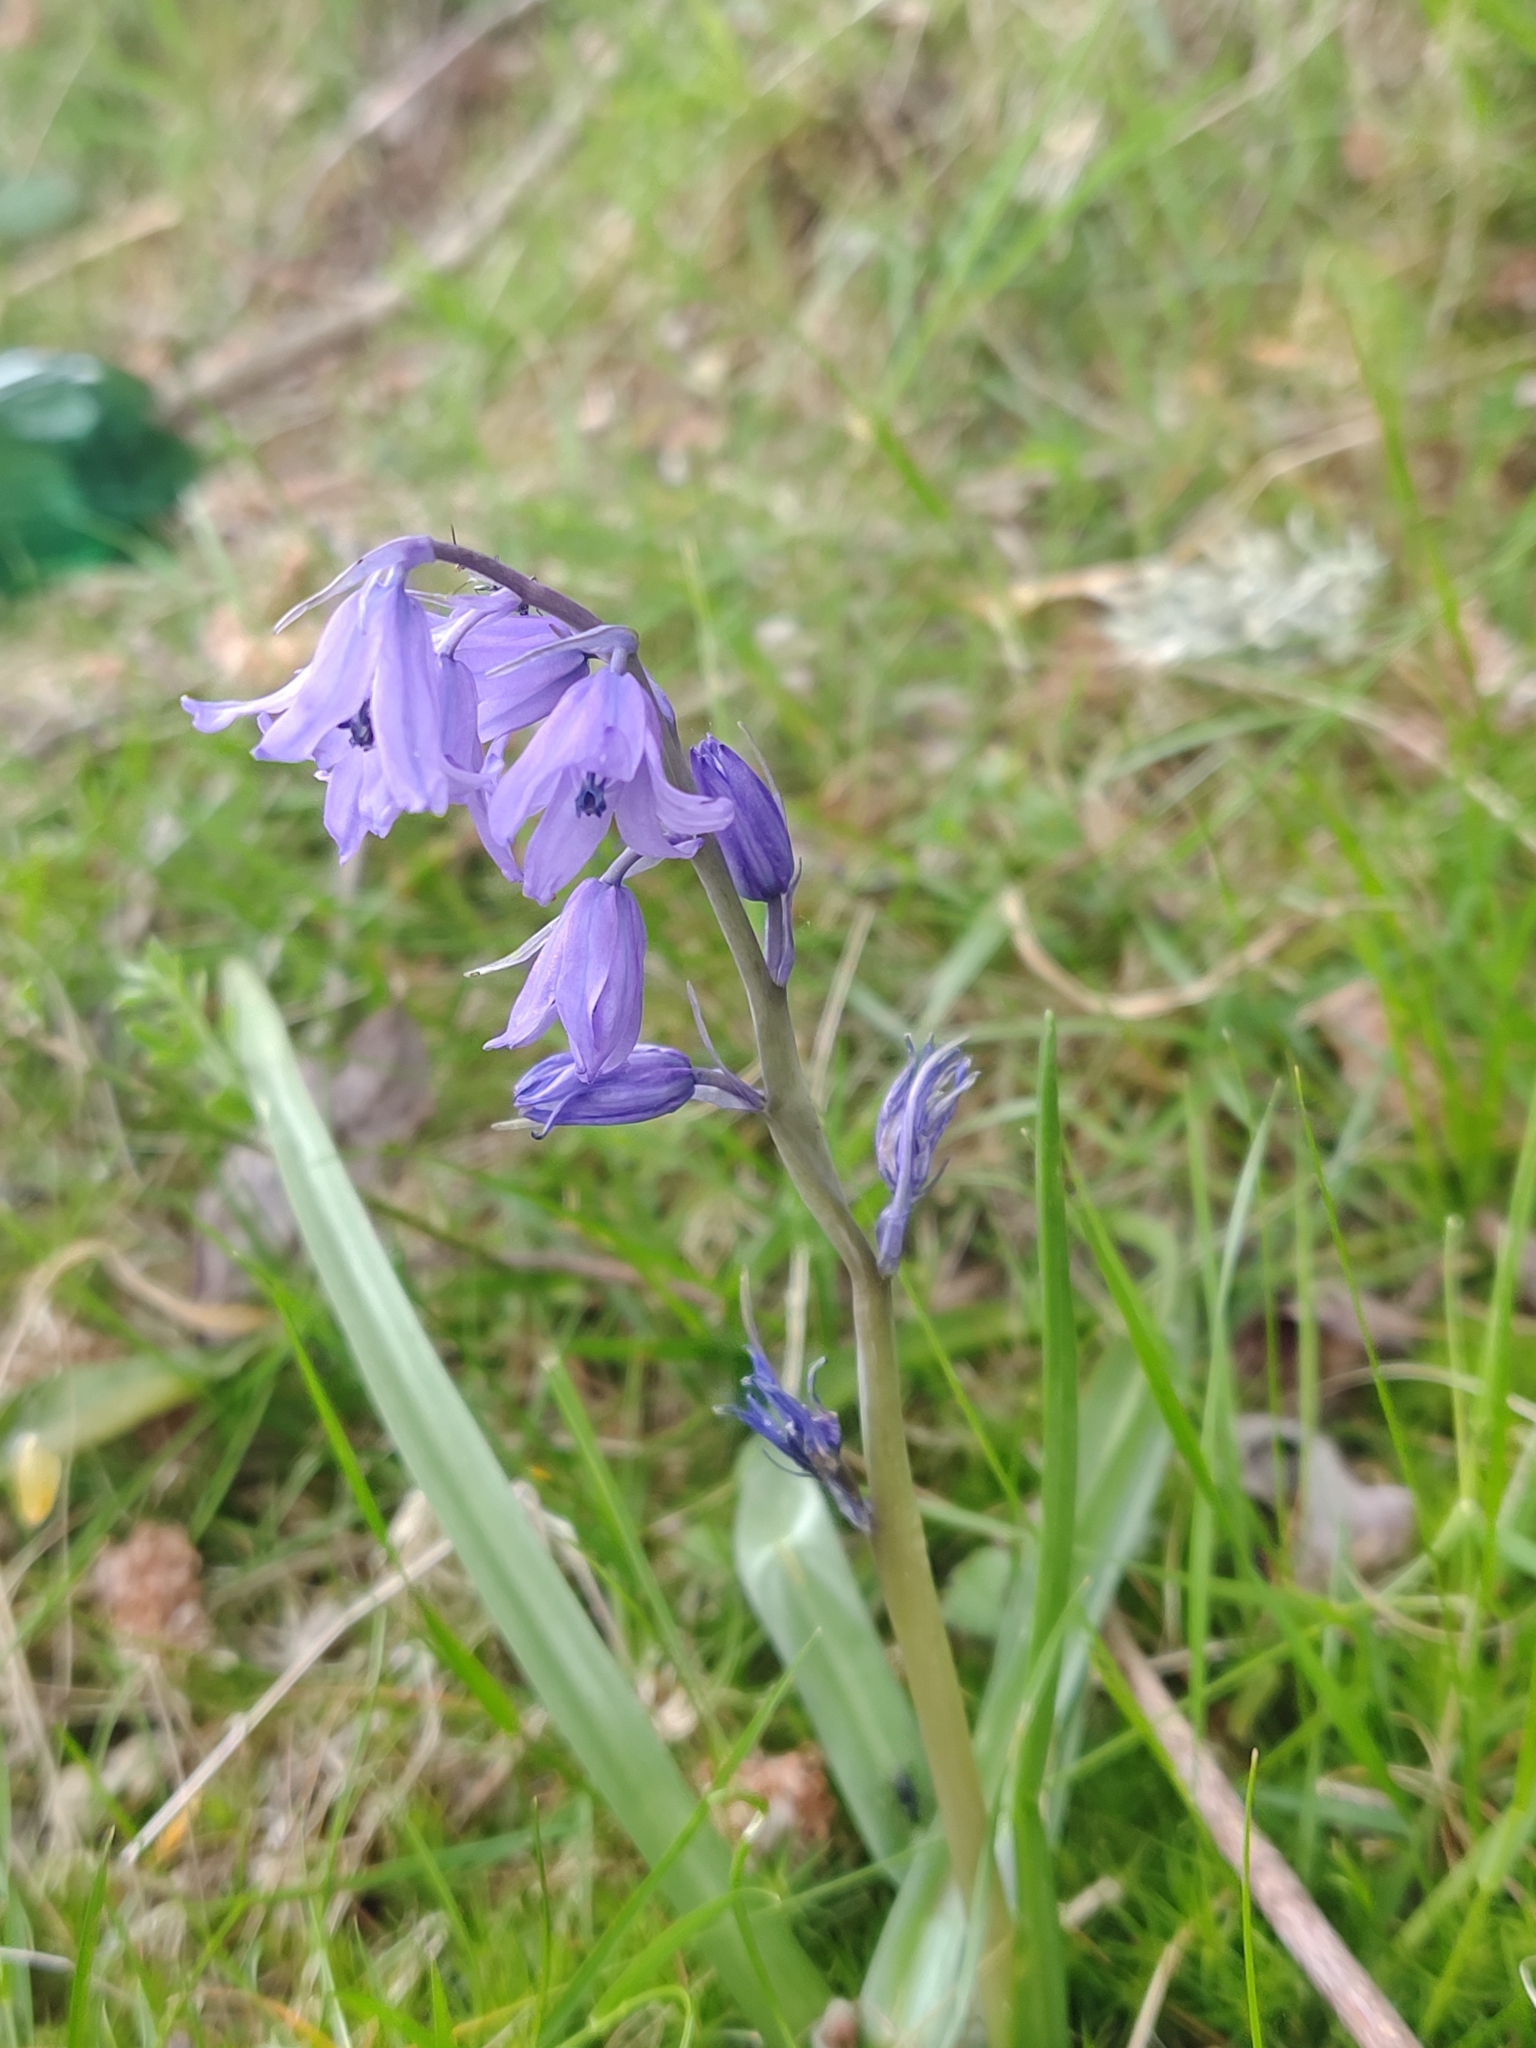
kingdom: Plantae
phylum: Tracheophyta
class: Liliopsida
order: Asparagales
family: Asparagaceae
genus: Hyacinthoides
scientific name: Hyacinthoides hispanica
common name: Spanish bluebell
